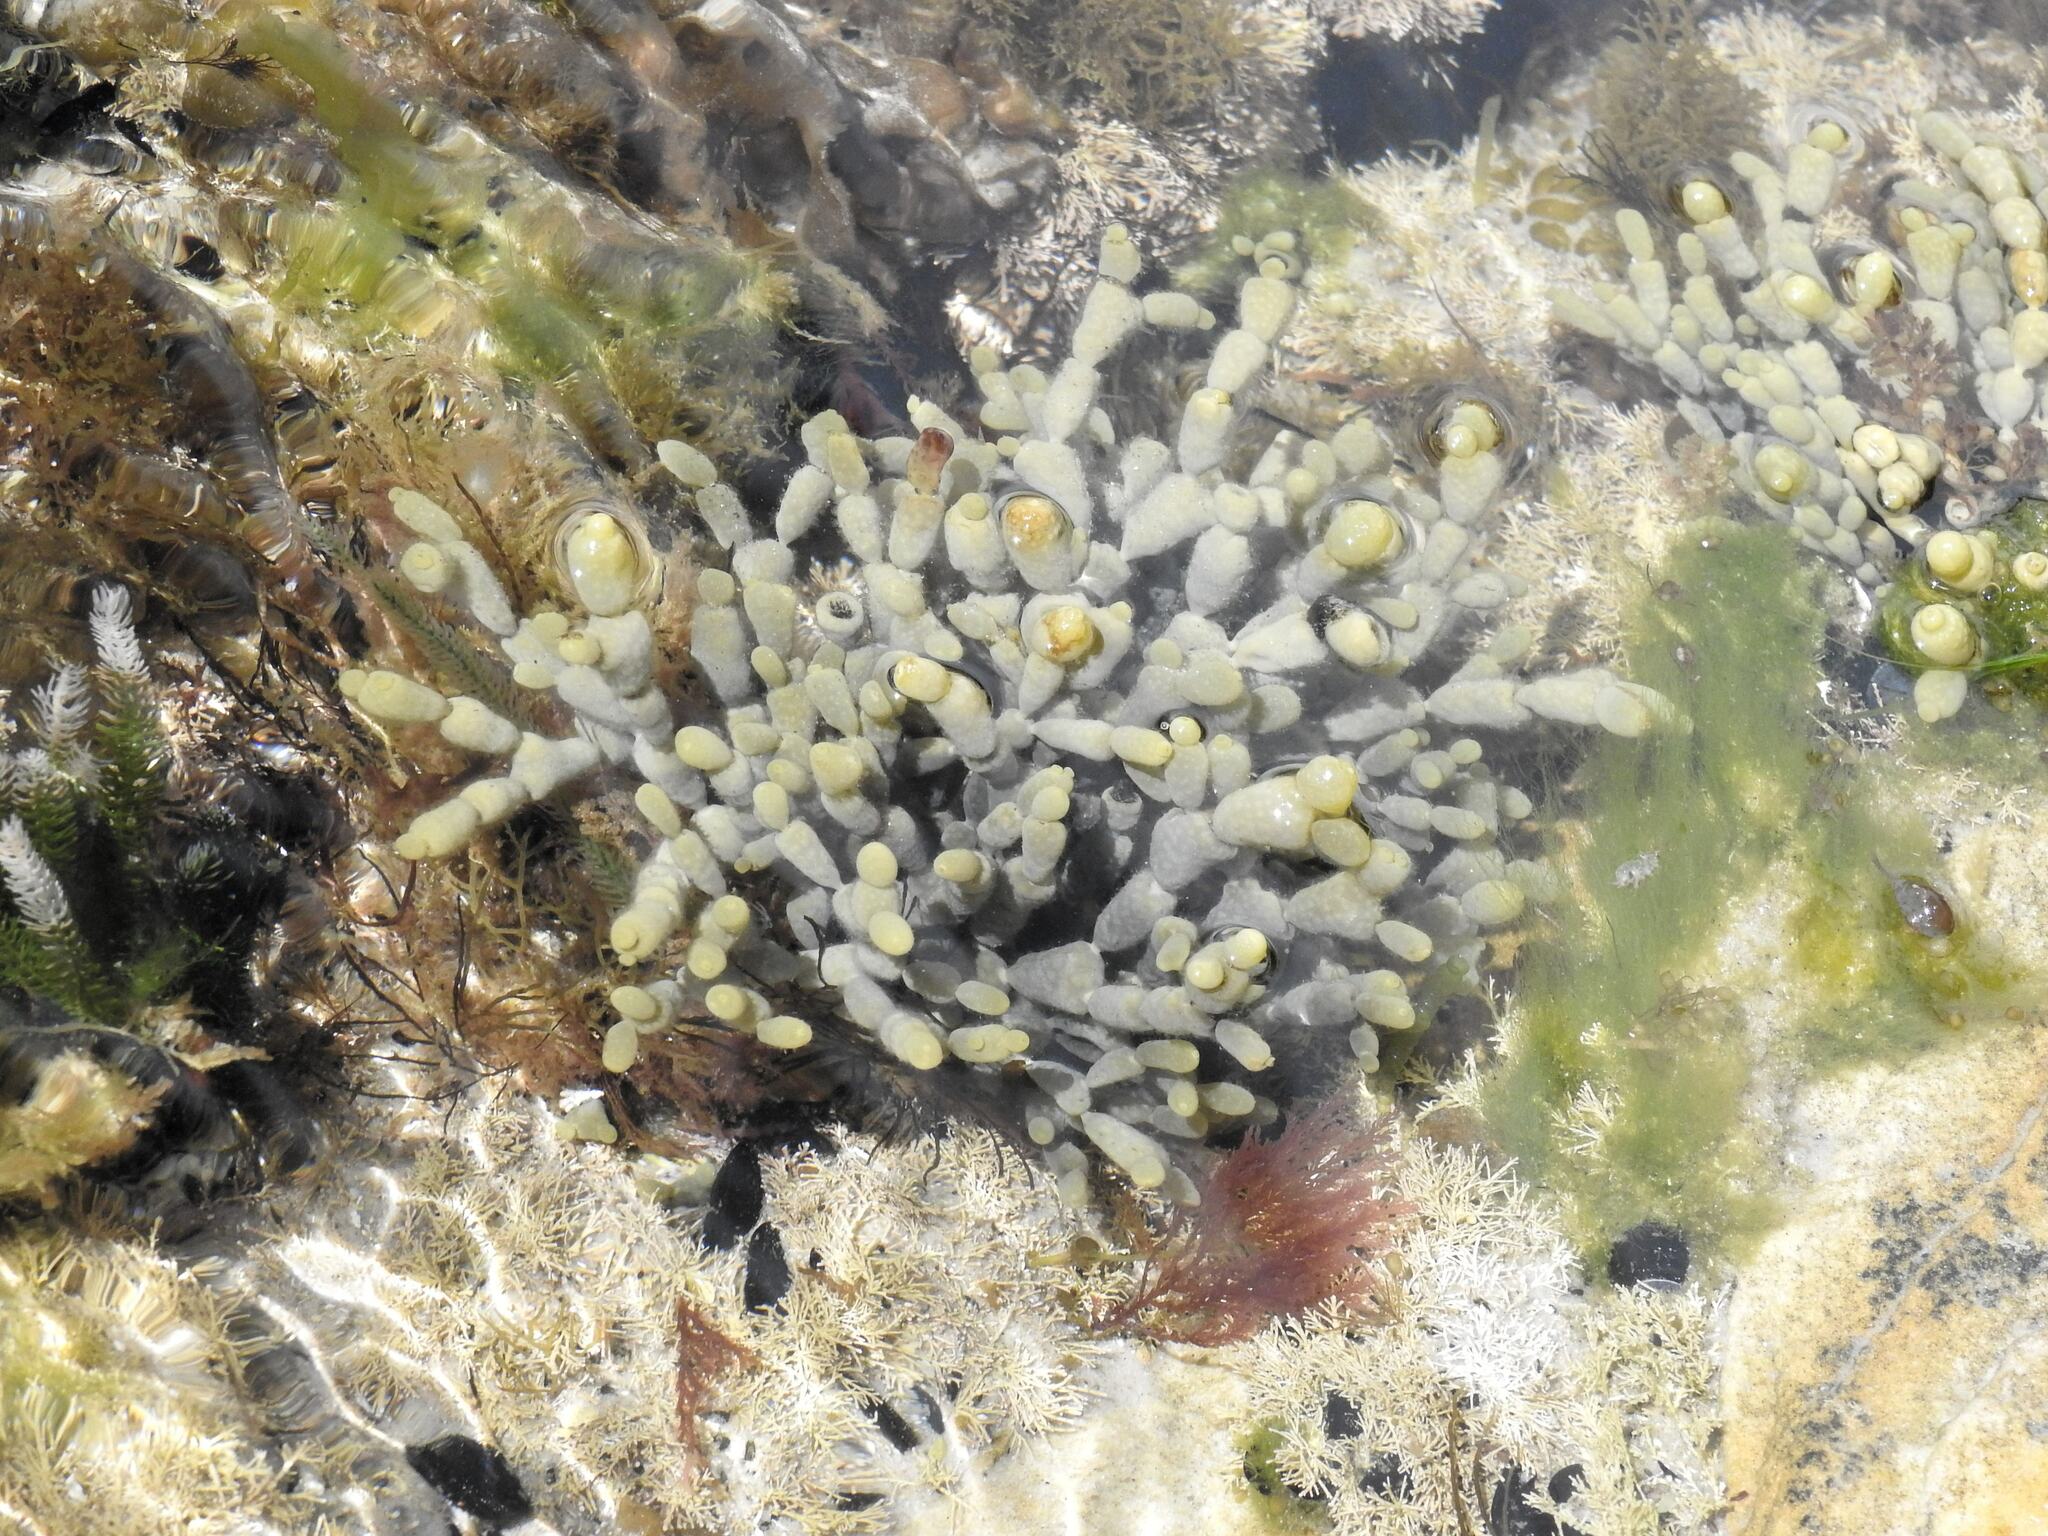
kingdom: Chromista
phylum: Ochrophyta
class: Phaeophyceae
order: Fucales
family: Hormosiraceae
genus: Hormosira
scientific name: Hormosira banksii
